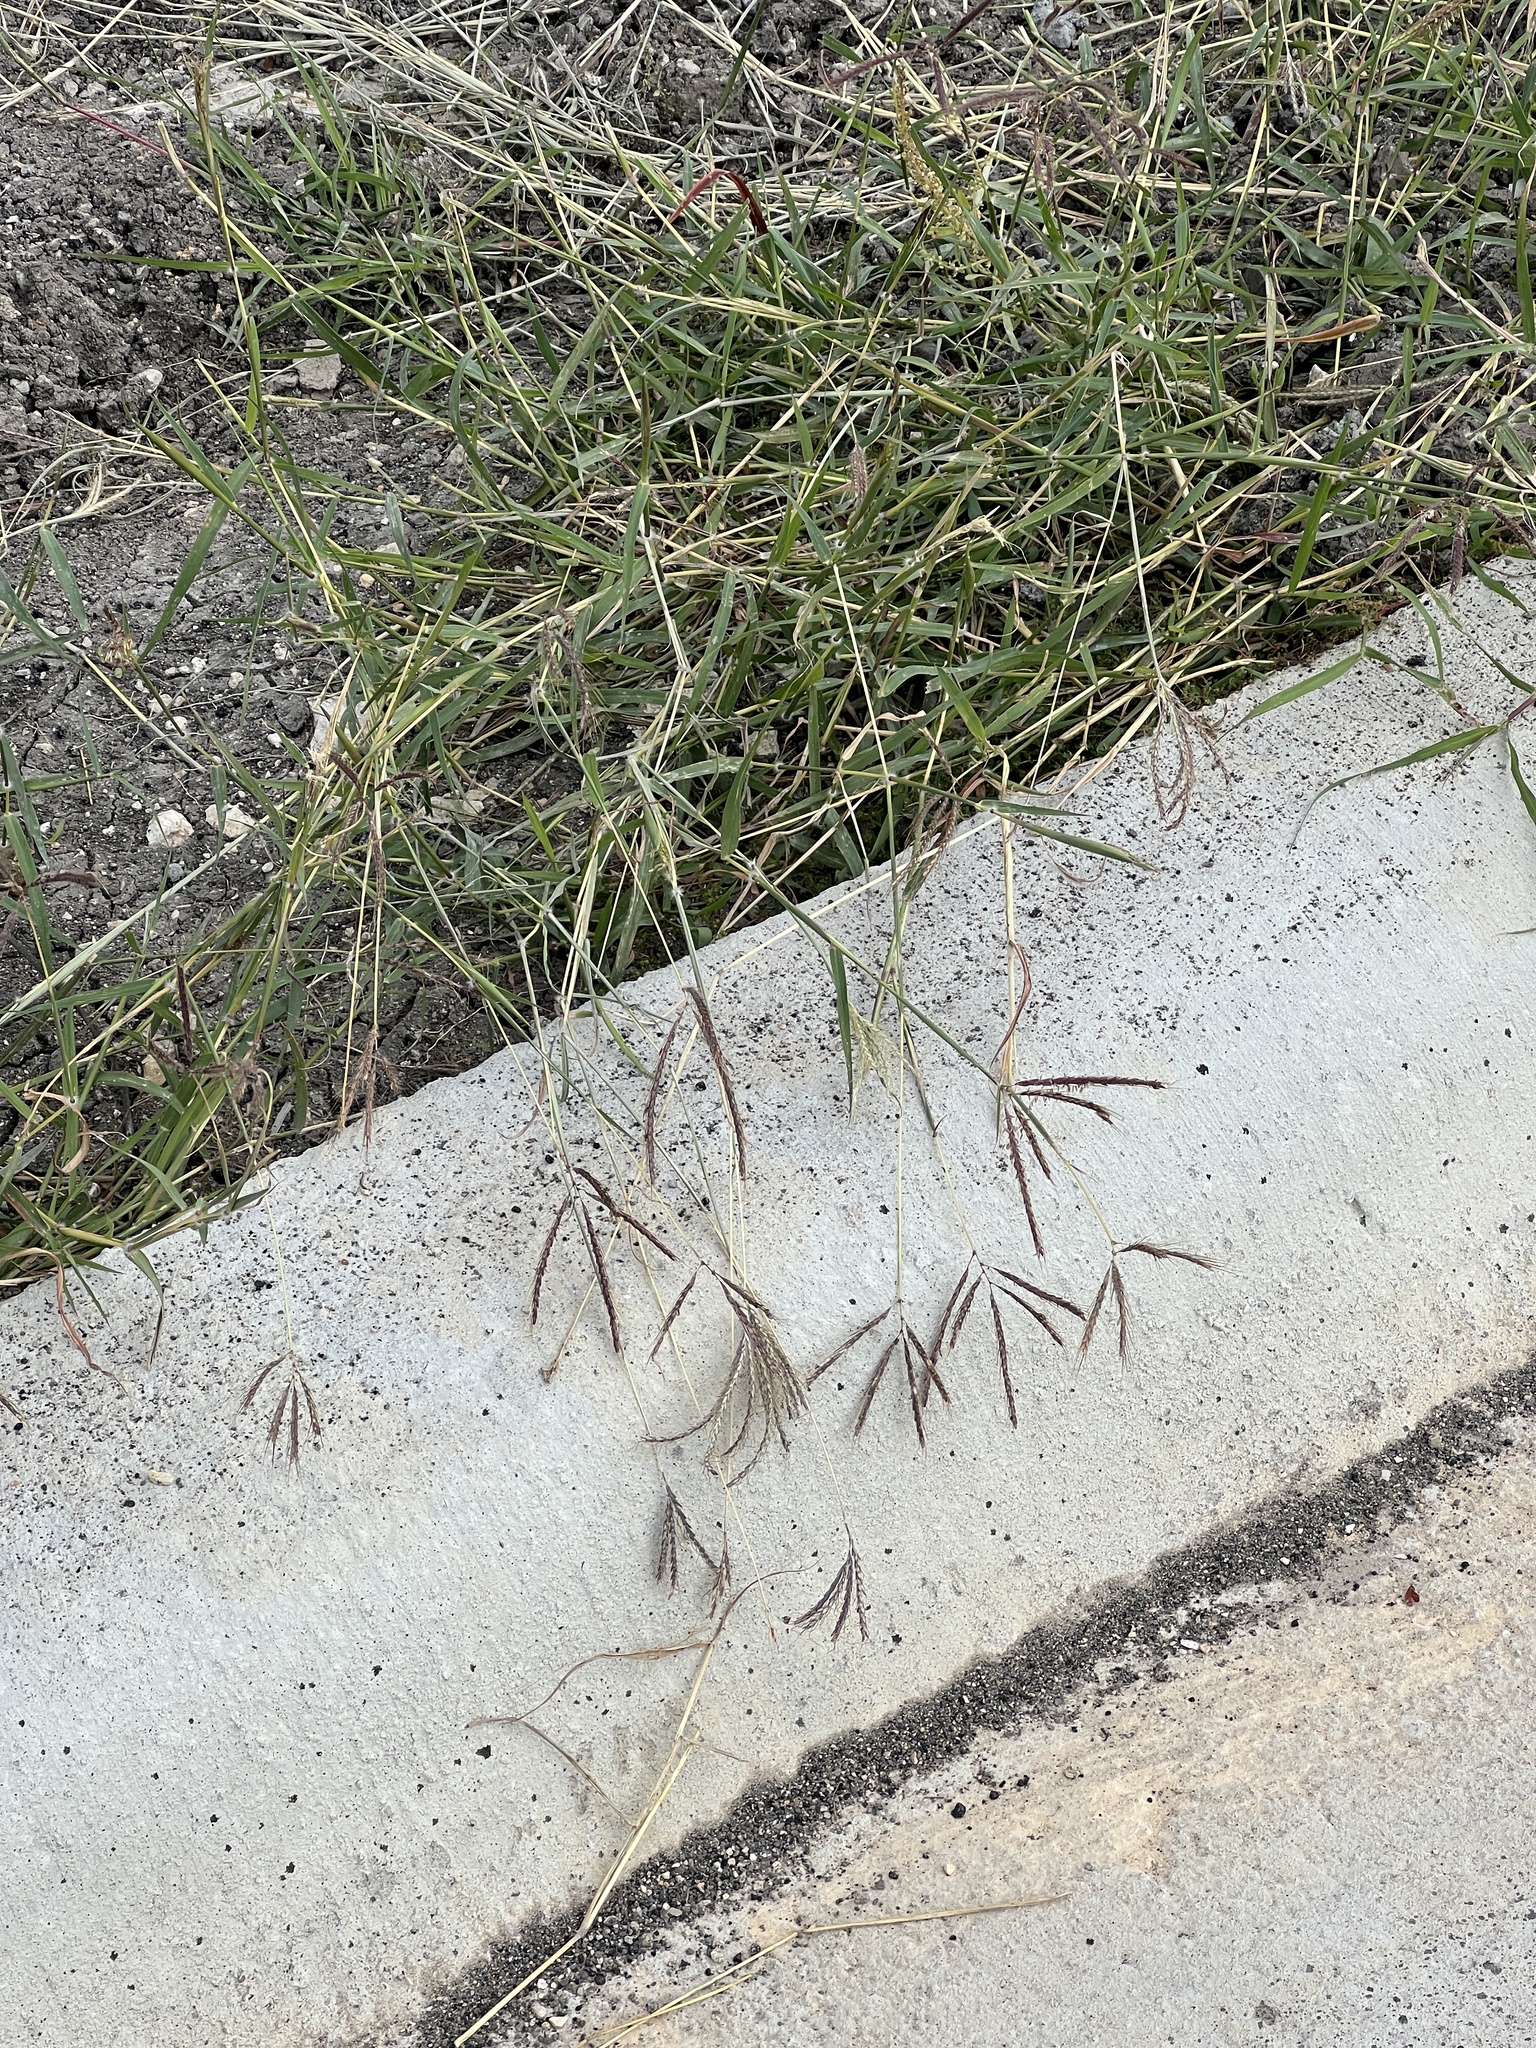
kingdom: Plantae
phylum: Tracheophyta
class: Liliopsida
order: Poales
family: Poaceae
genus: Dichanthium
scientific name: Dichanthium annulatum
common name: Kleberg's bluestem
